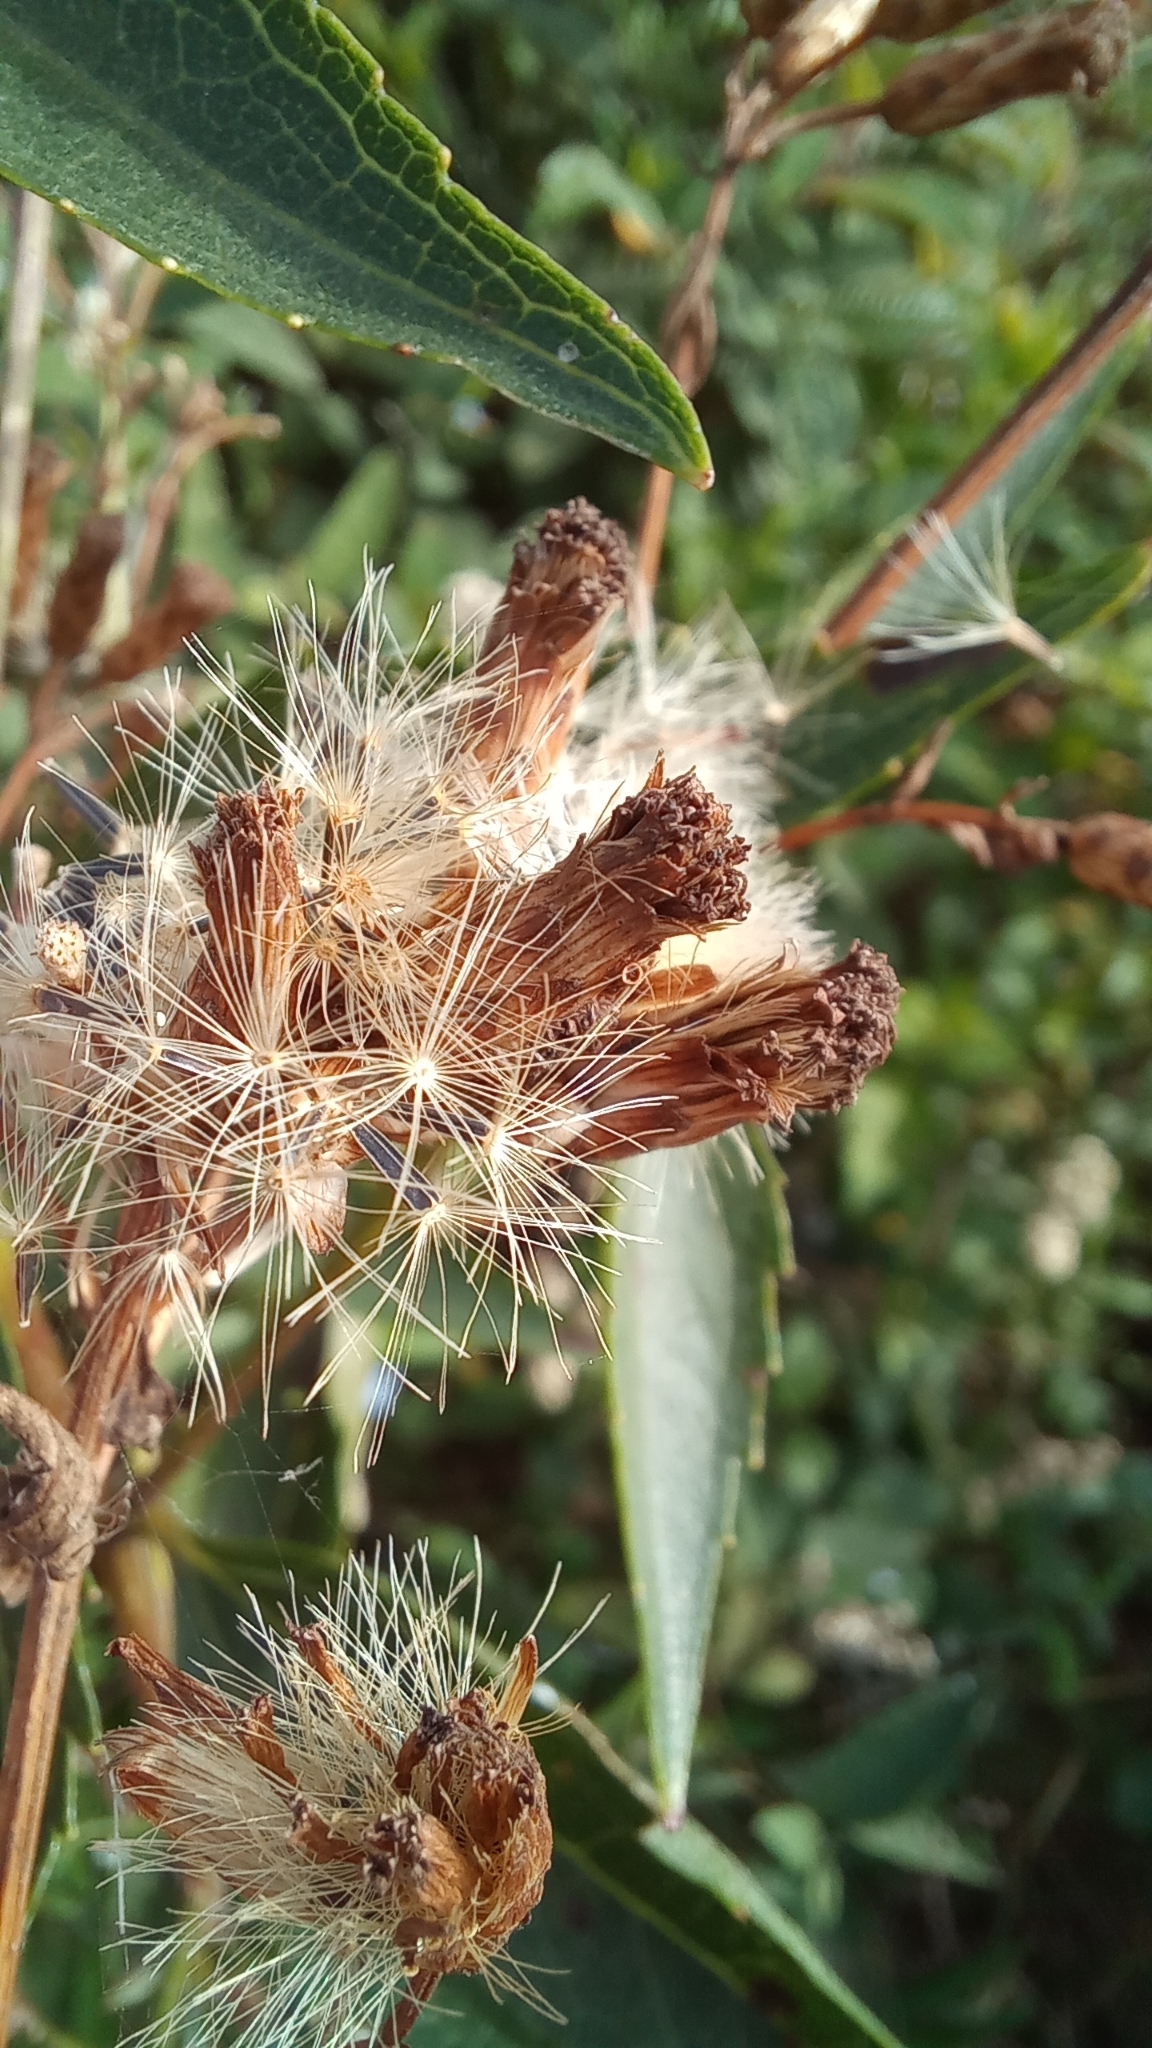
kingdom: Plantae
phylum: Tracheophyta
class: Magnoliopsida
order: Asterales
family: Asteraceae
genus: Chromolaena
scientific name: Chromolaena laevigata
